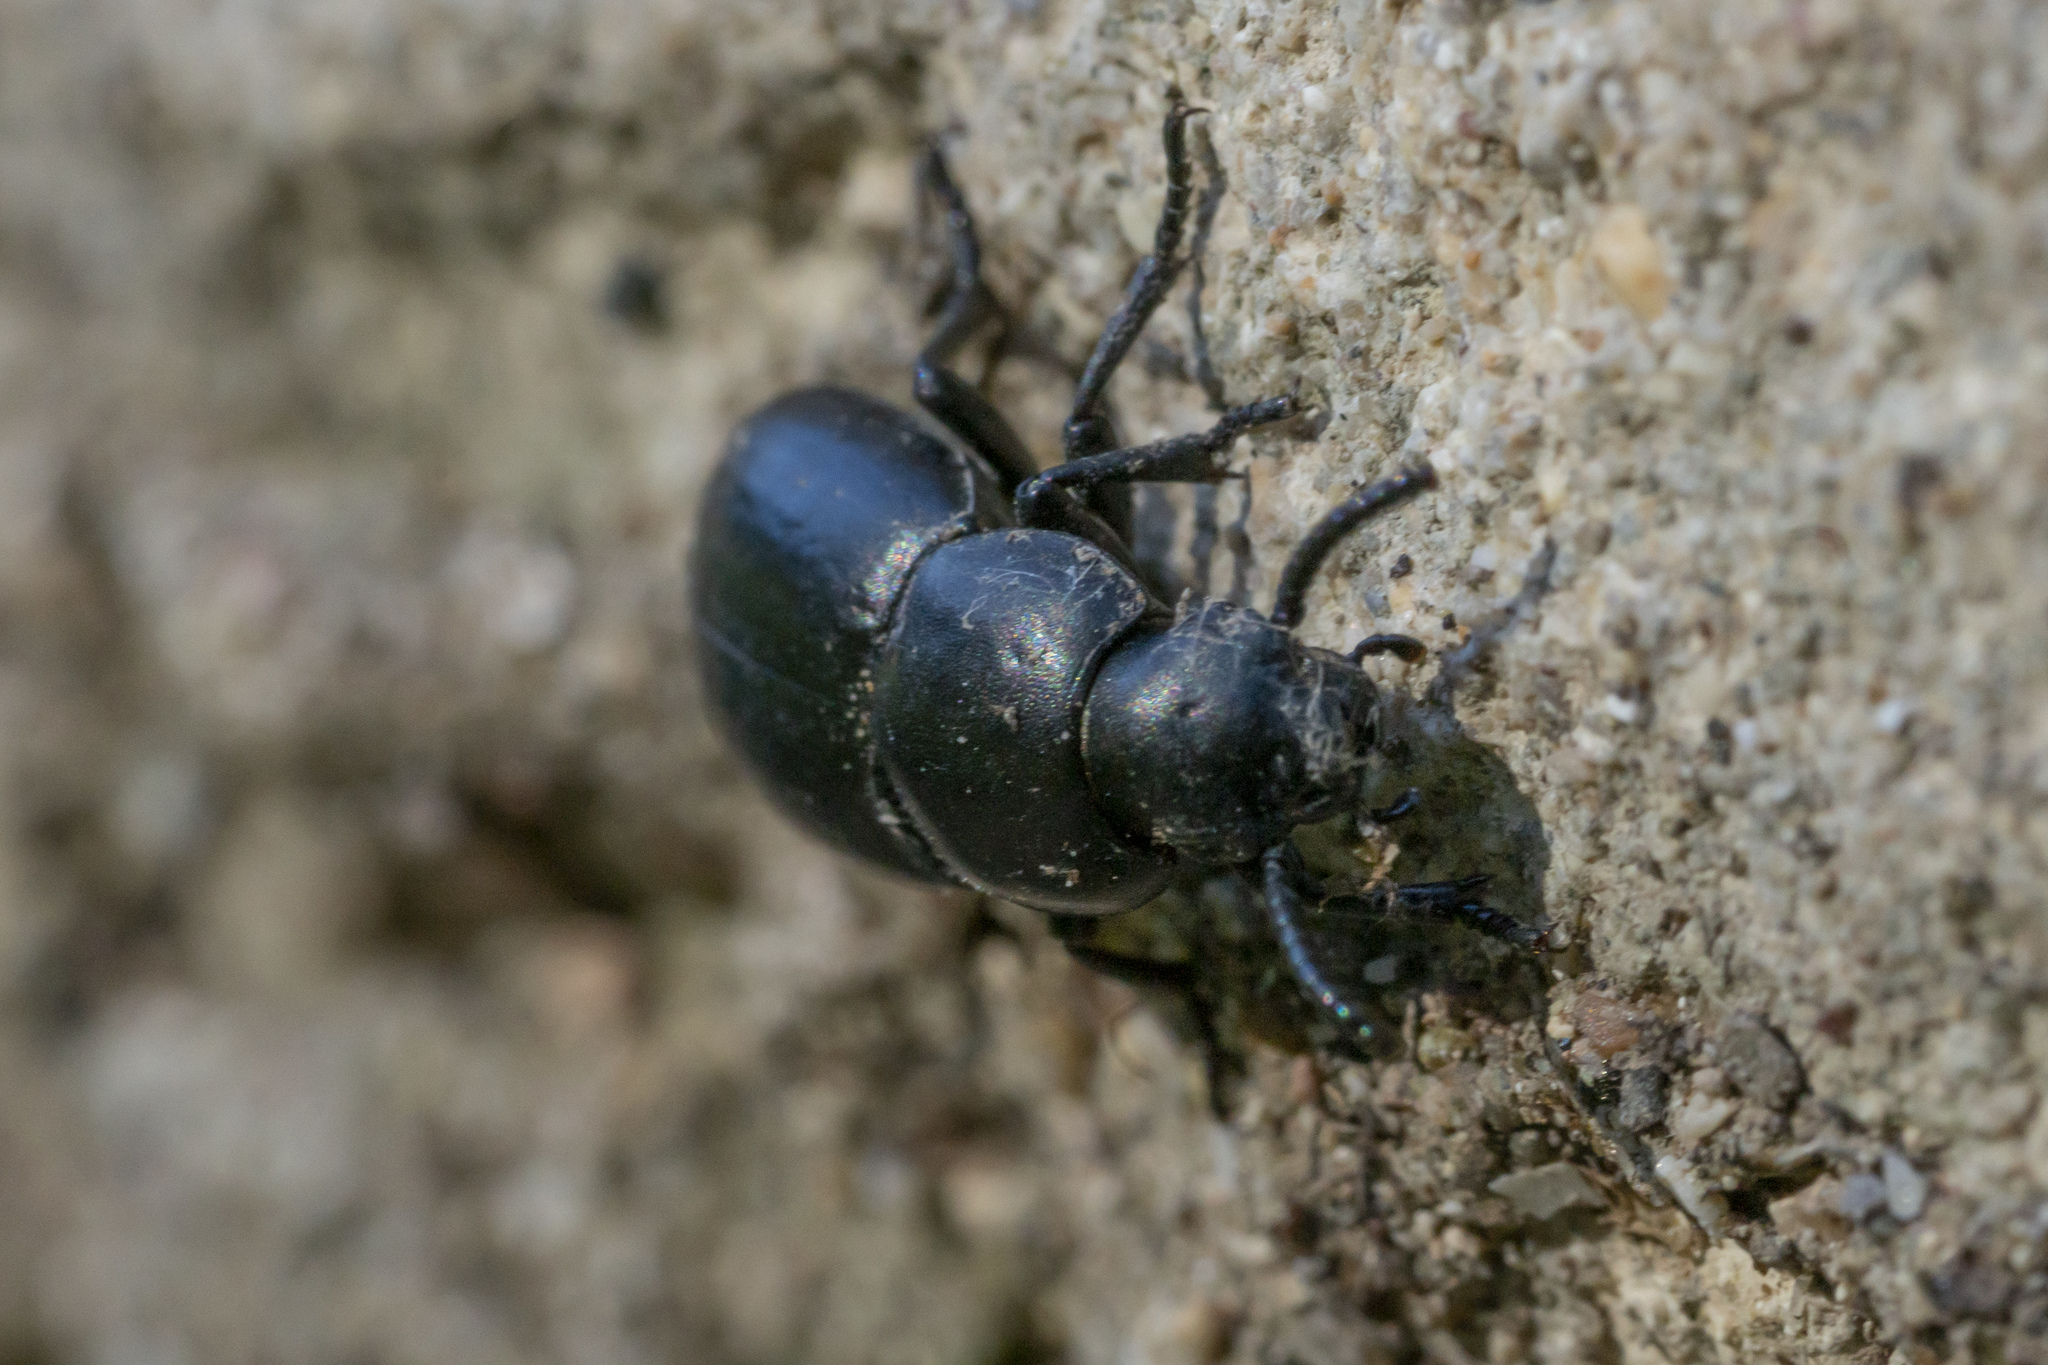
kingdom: Animalia
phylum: Arthropoda
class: Insecta
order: Coleoptera
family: Tenebrionidae
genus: Dailognatha
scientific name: Dailognatha quadricollis
